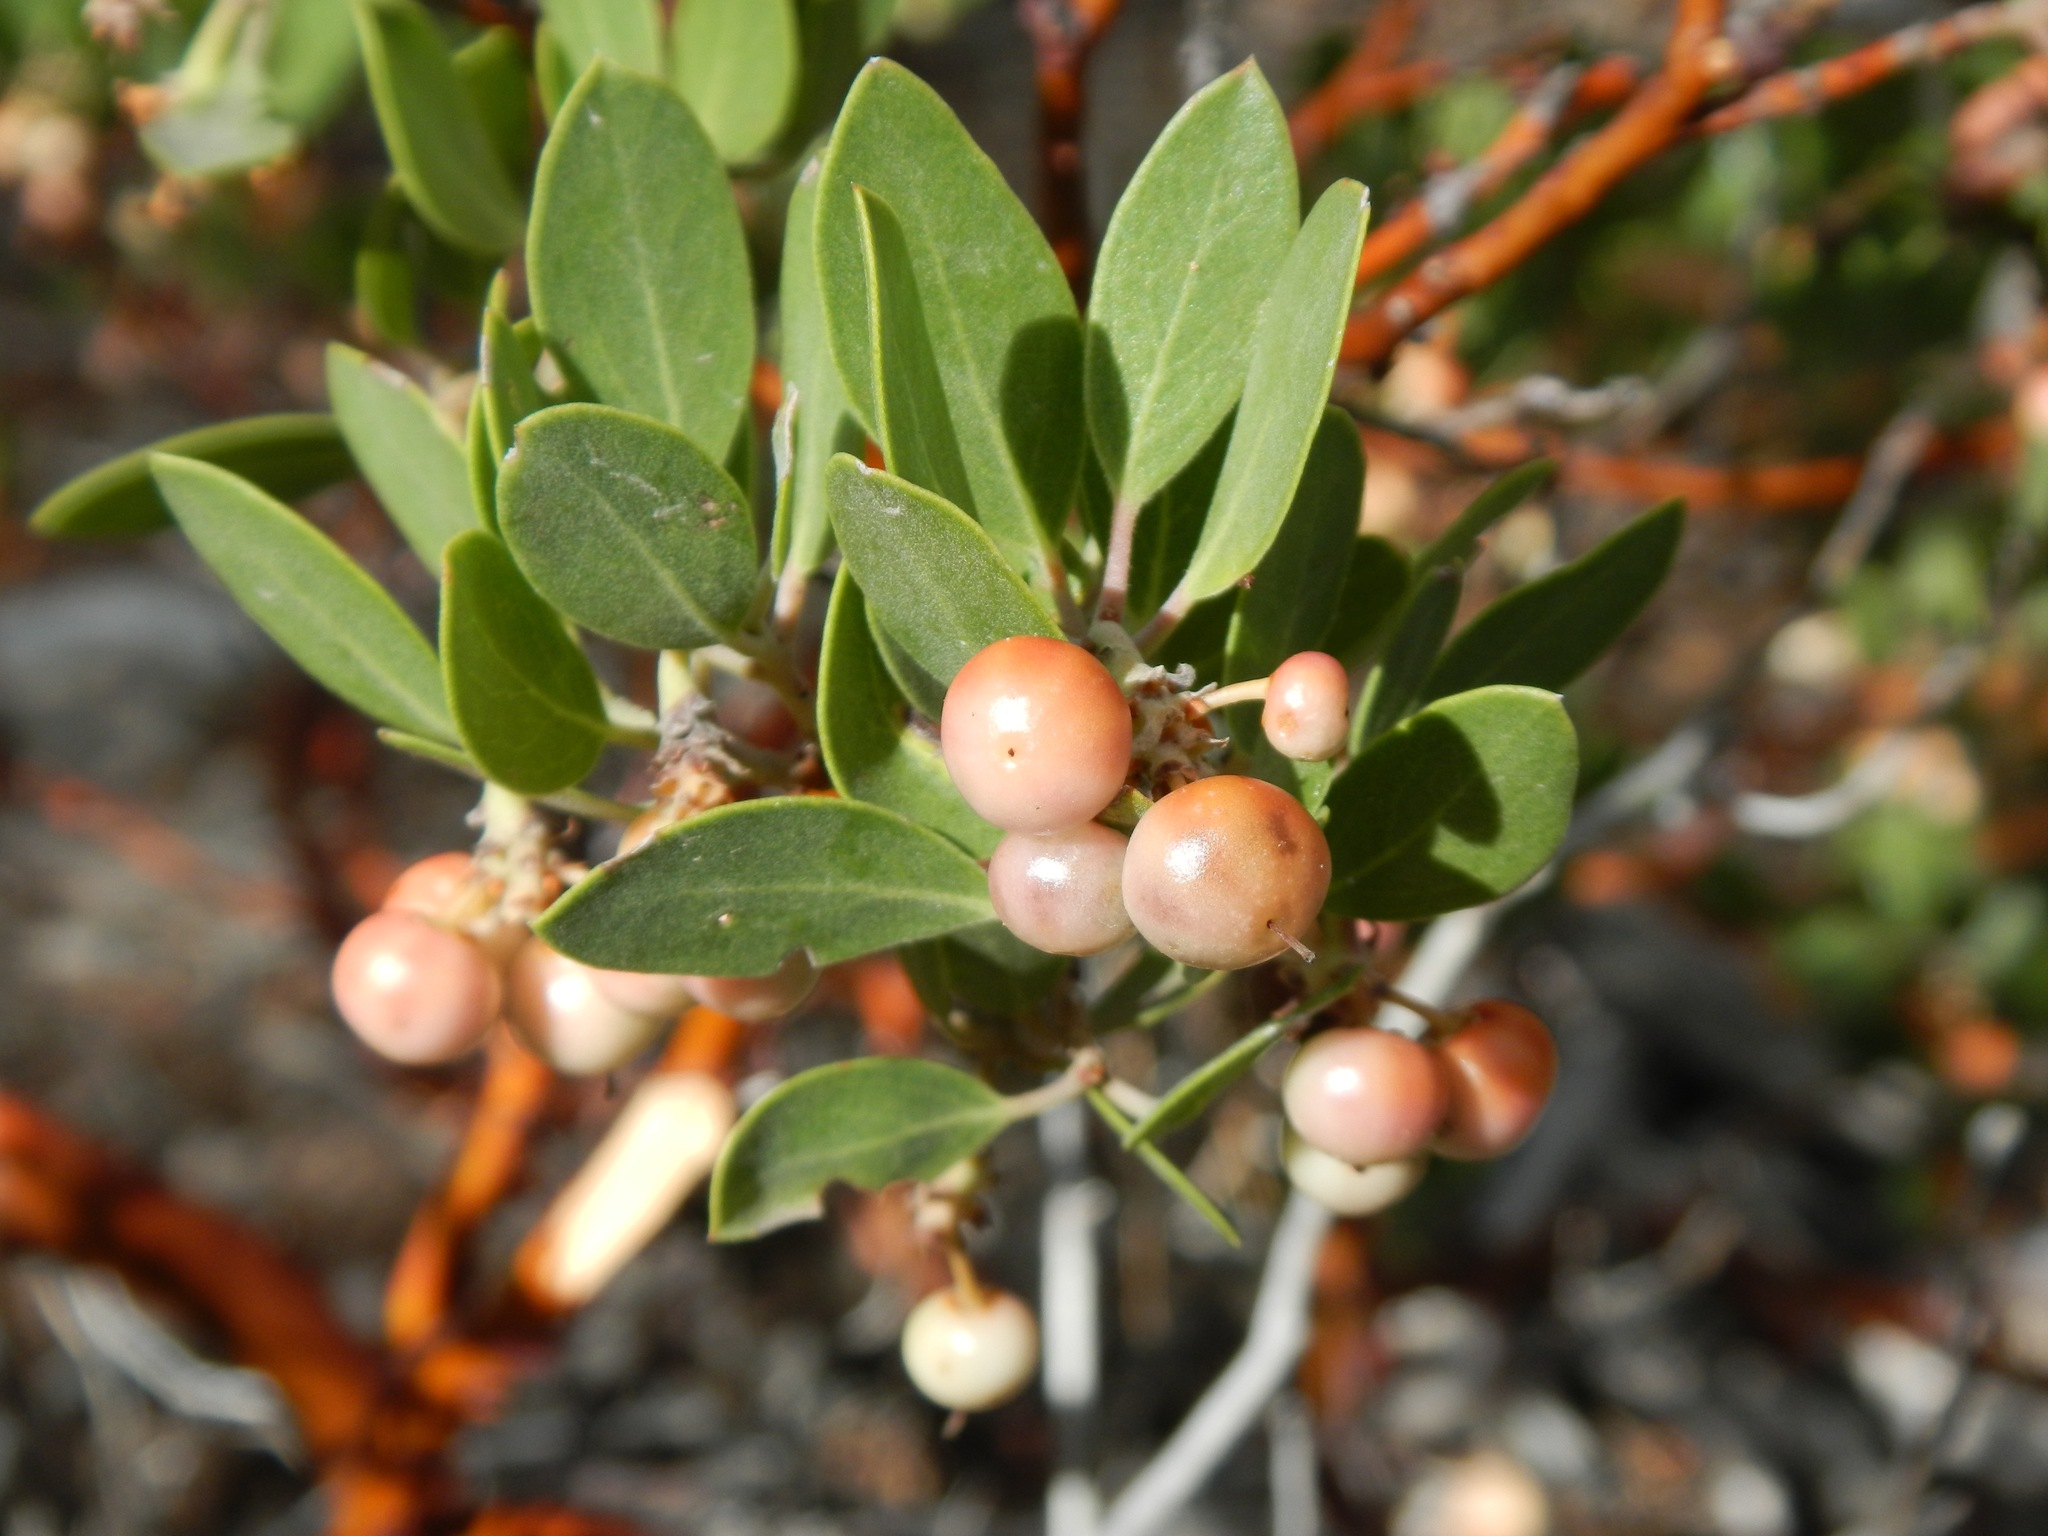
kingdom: Plantae
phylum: Tracheophyta
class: Magnoliopsida
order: Ericales
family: Ericaceae
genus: Arctostaphylos
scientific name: Arctostaphylos pungens
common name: Mexican manzanita
